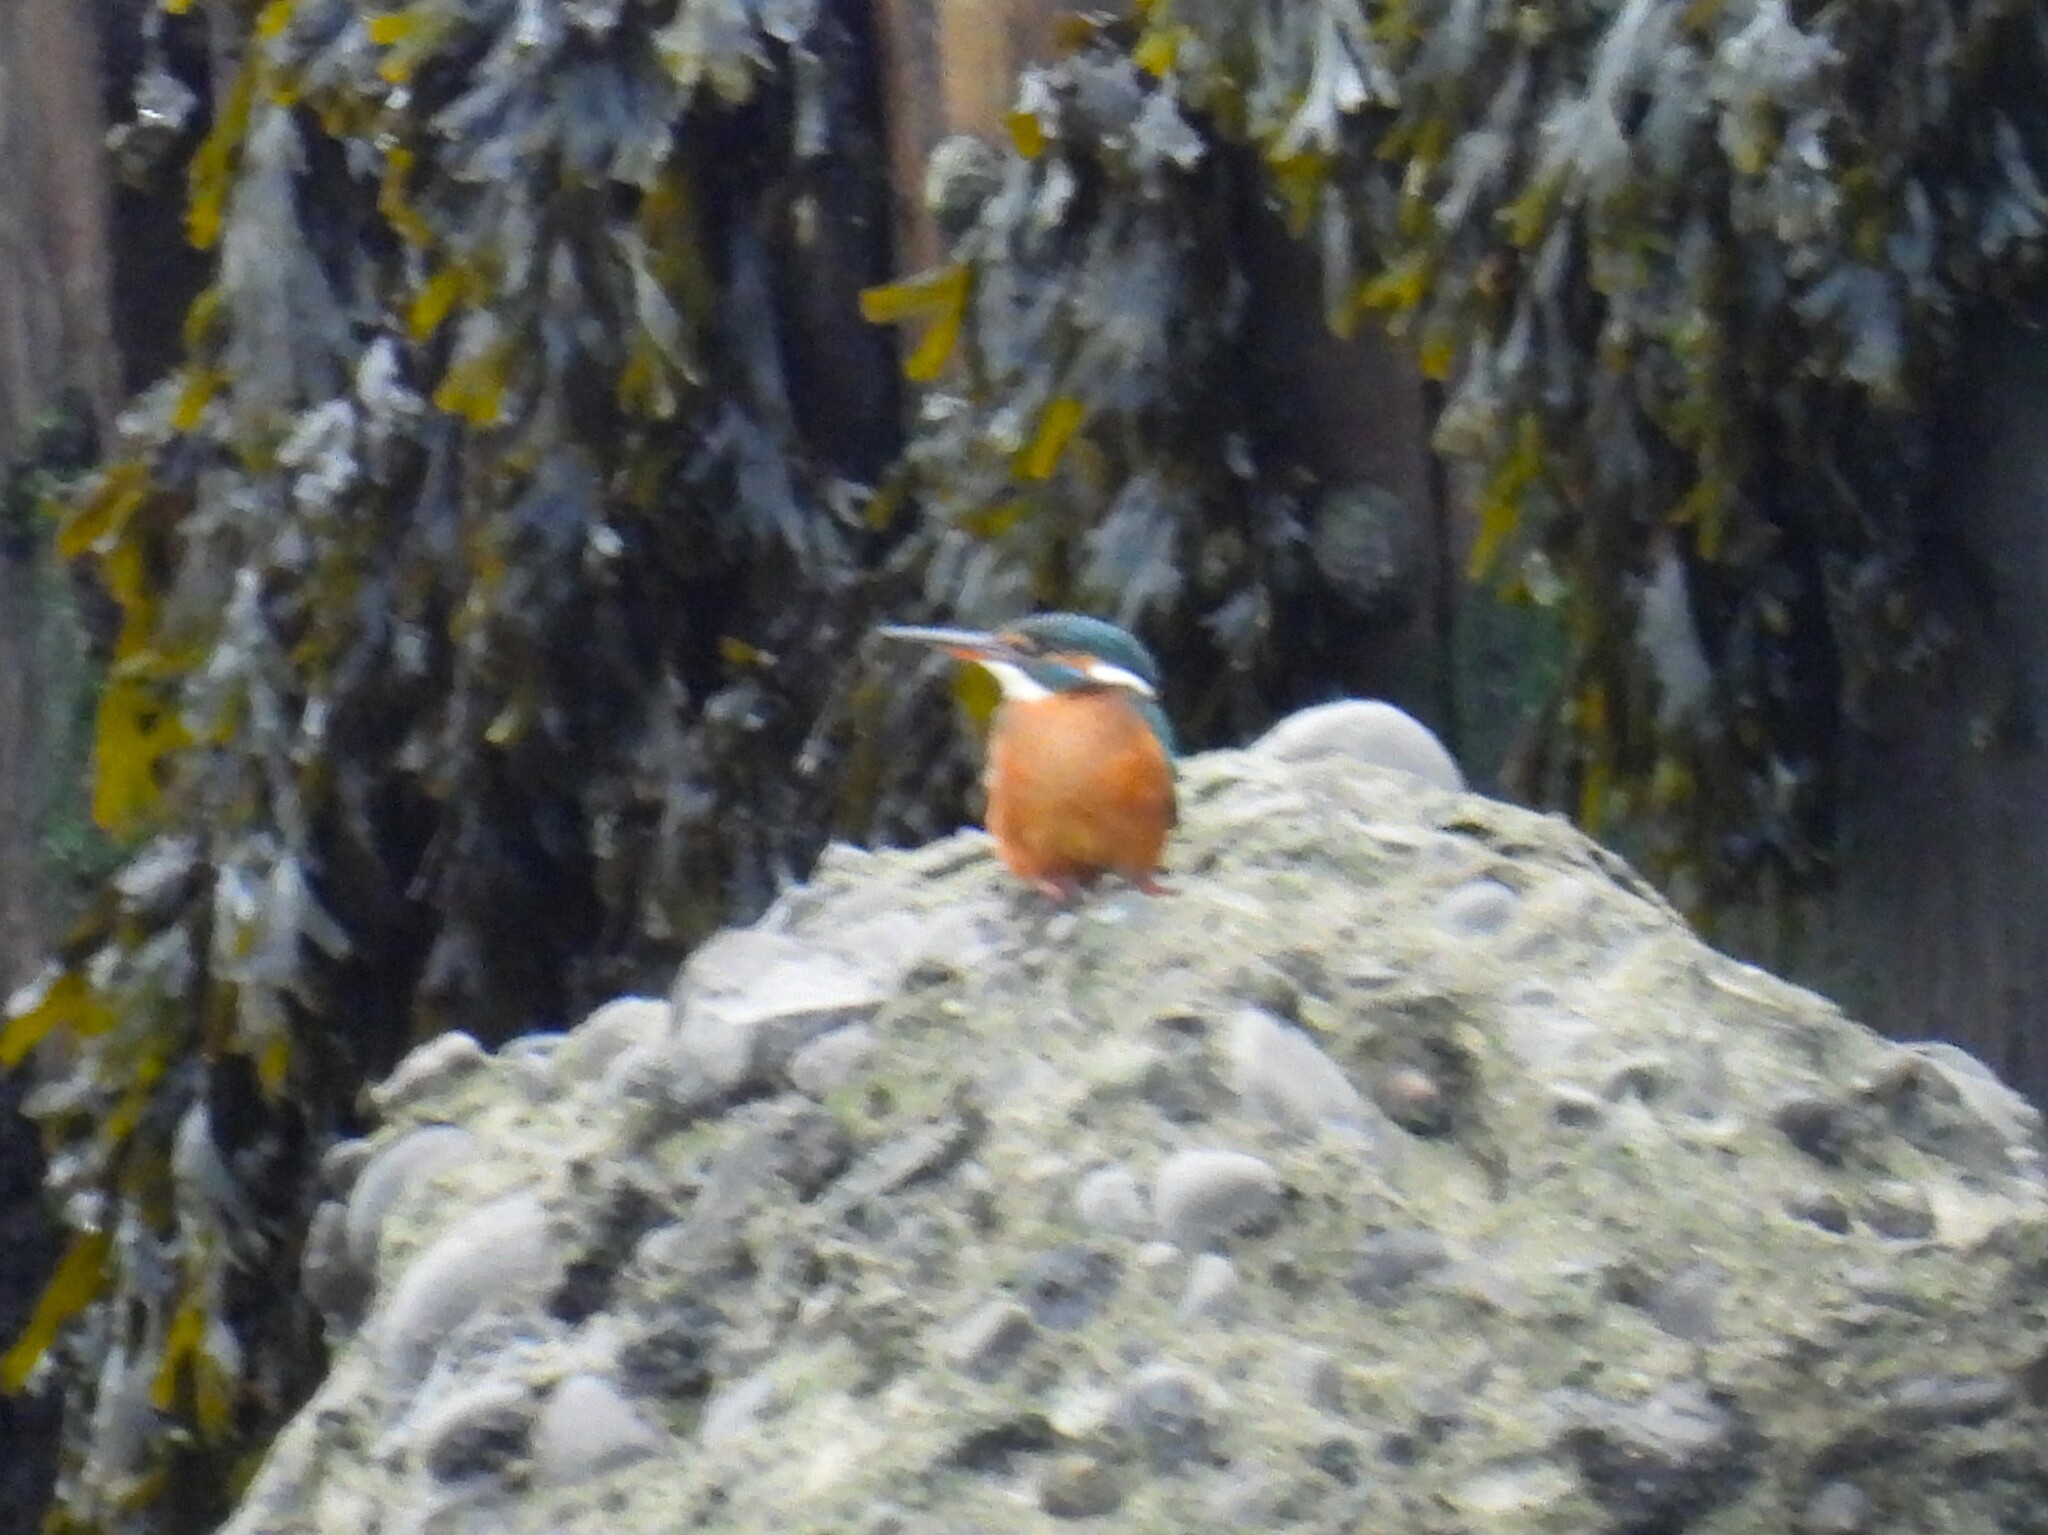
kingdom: Animalia
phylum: Chordata
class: Aves
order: Coraciiformes
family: Alcedinidae
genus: Alcedo
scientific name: Alcedo atthis
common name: Common kingfisher
